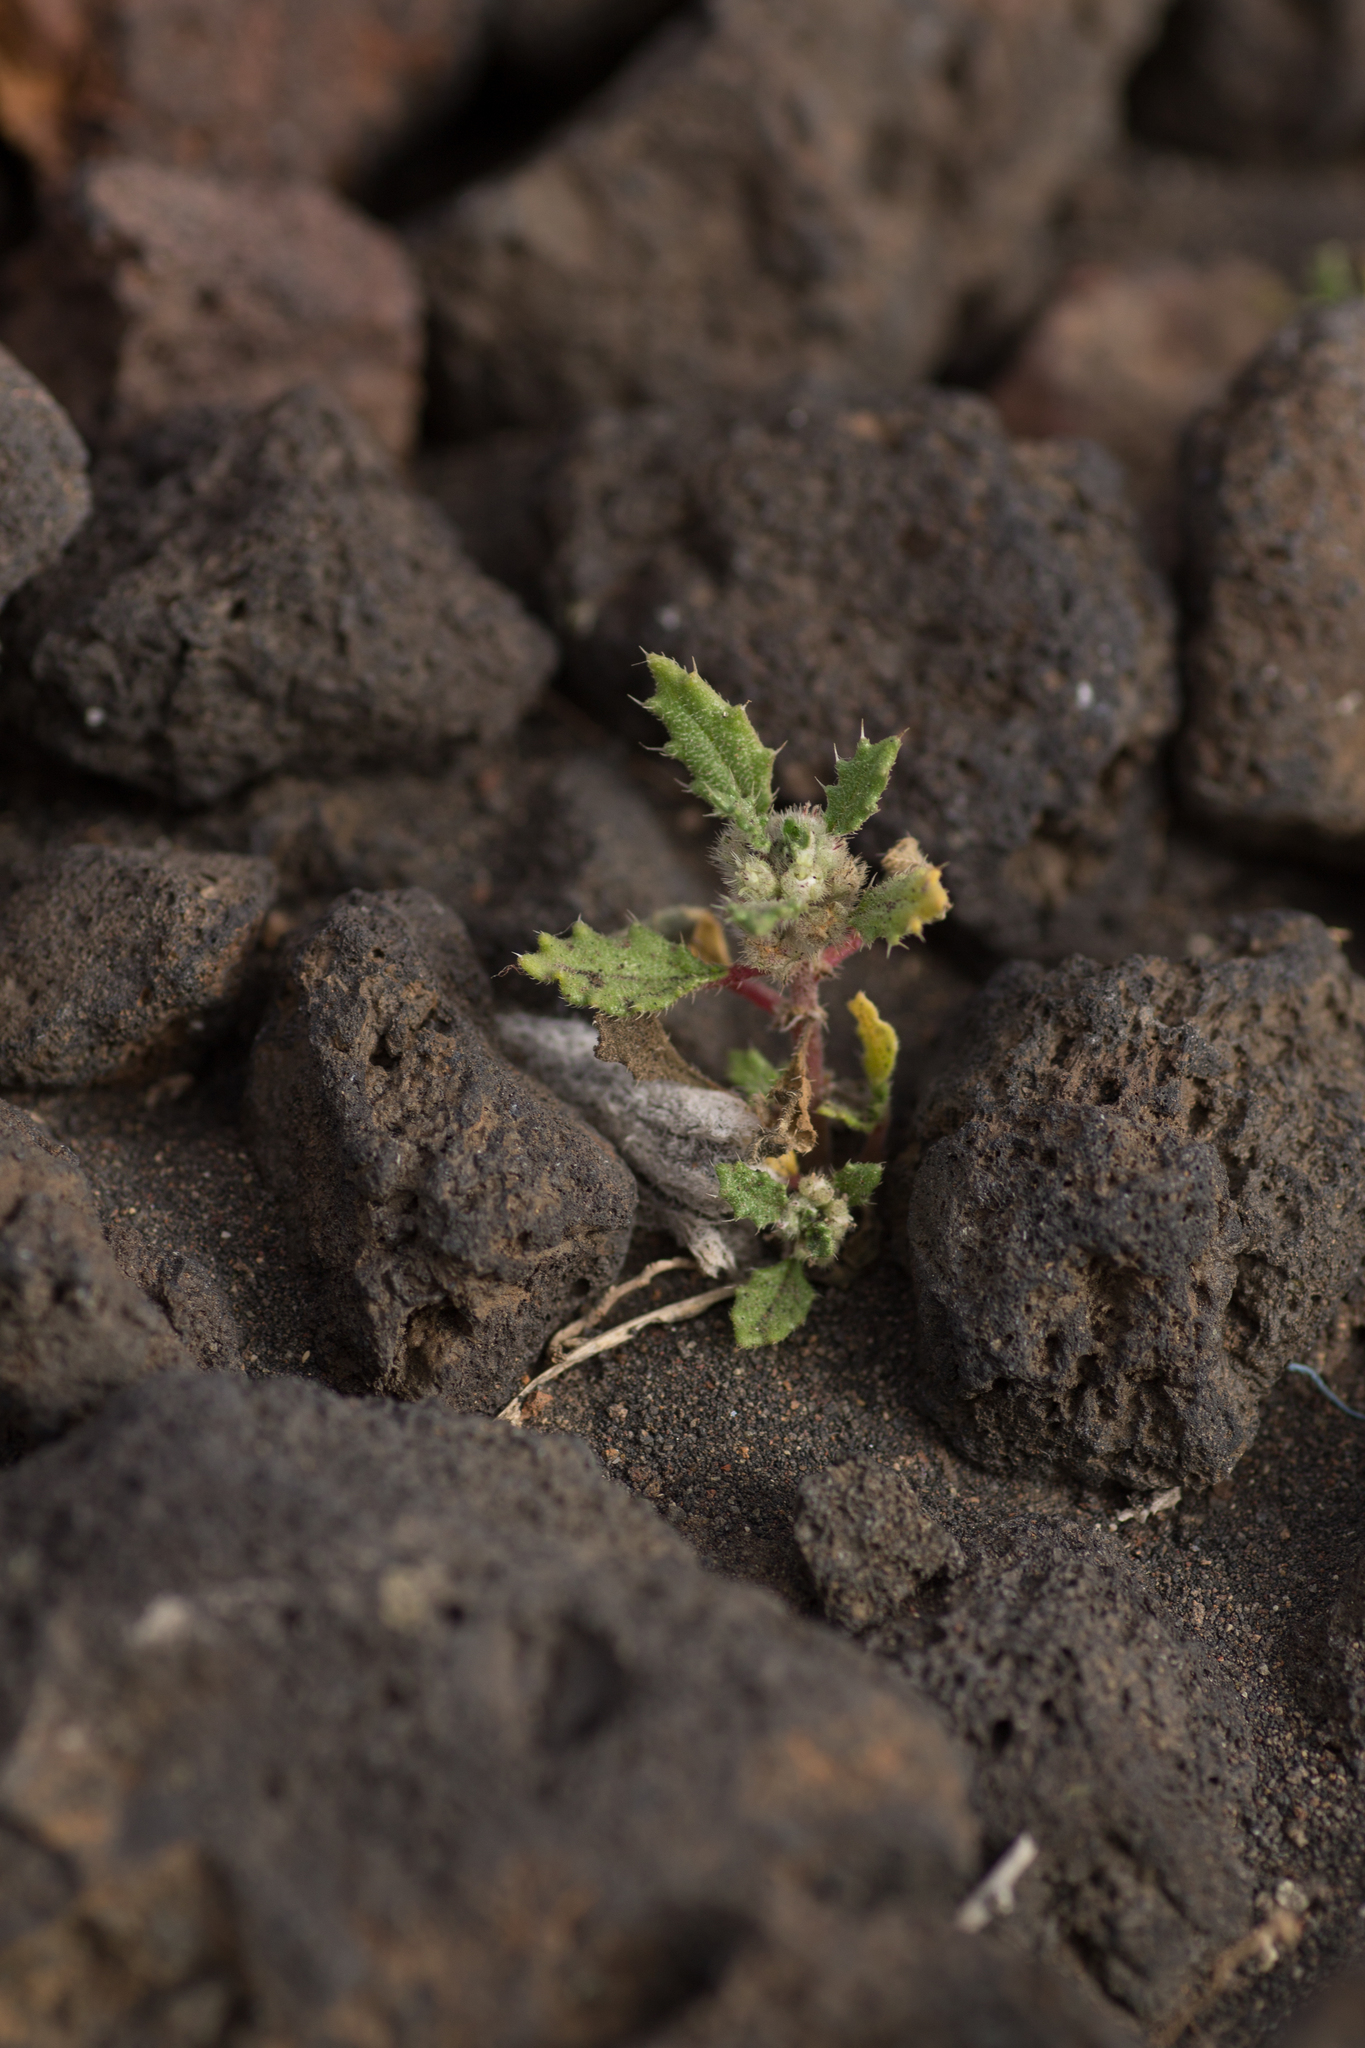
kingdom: Plantae
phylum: Tracheophyta
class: Magnoliopsida
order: Rosales
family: Urticaceae
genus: Forsskaolea
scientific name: Forsskaolea angustifolia
